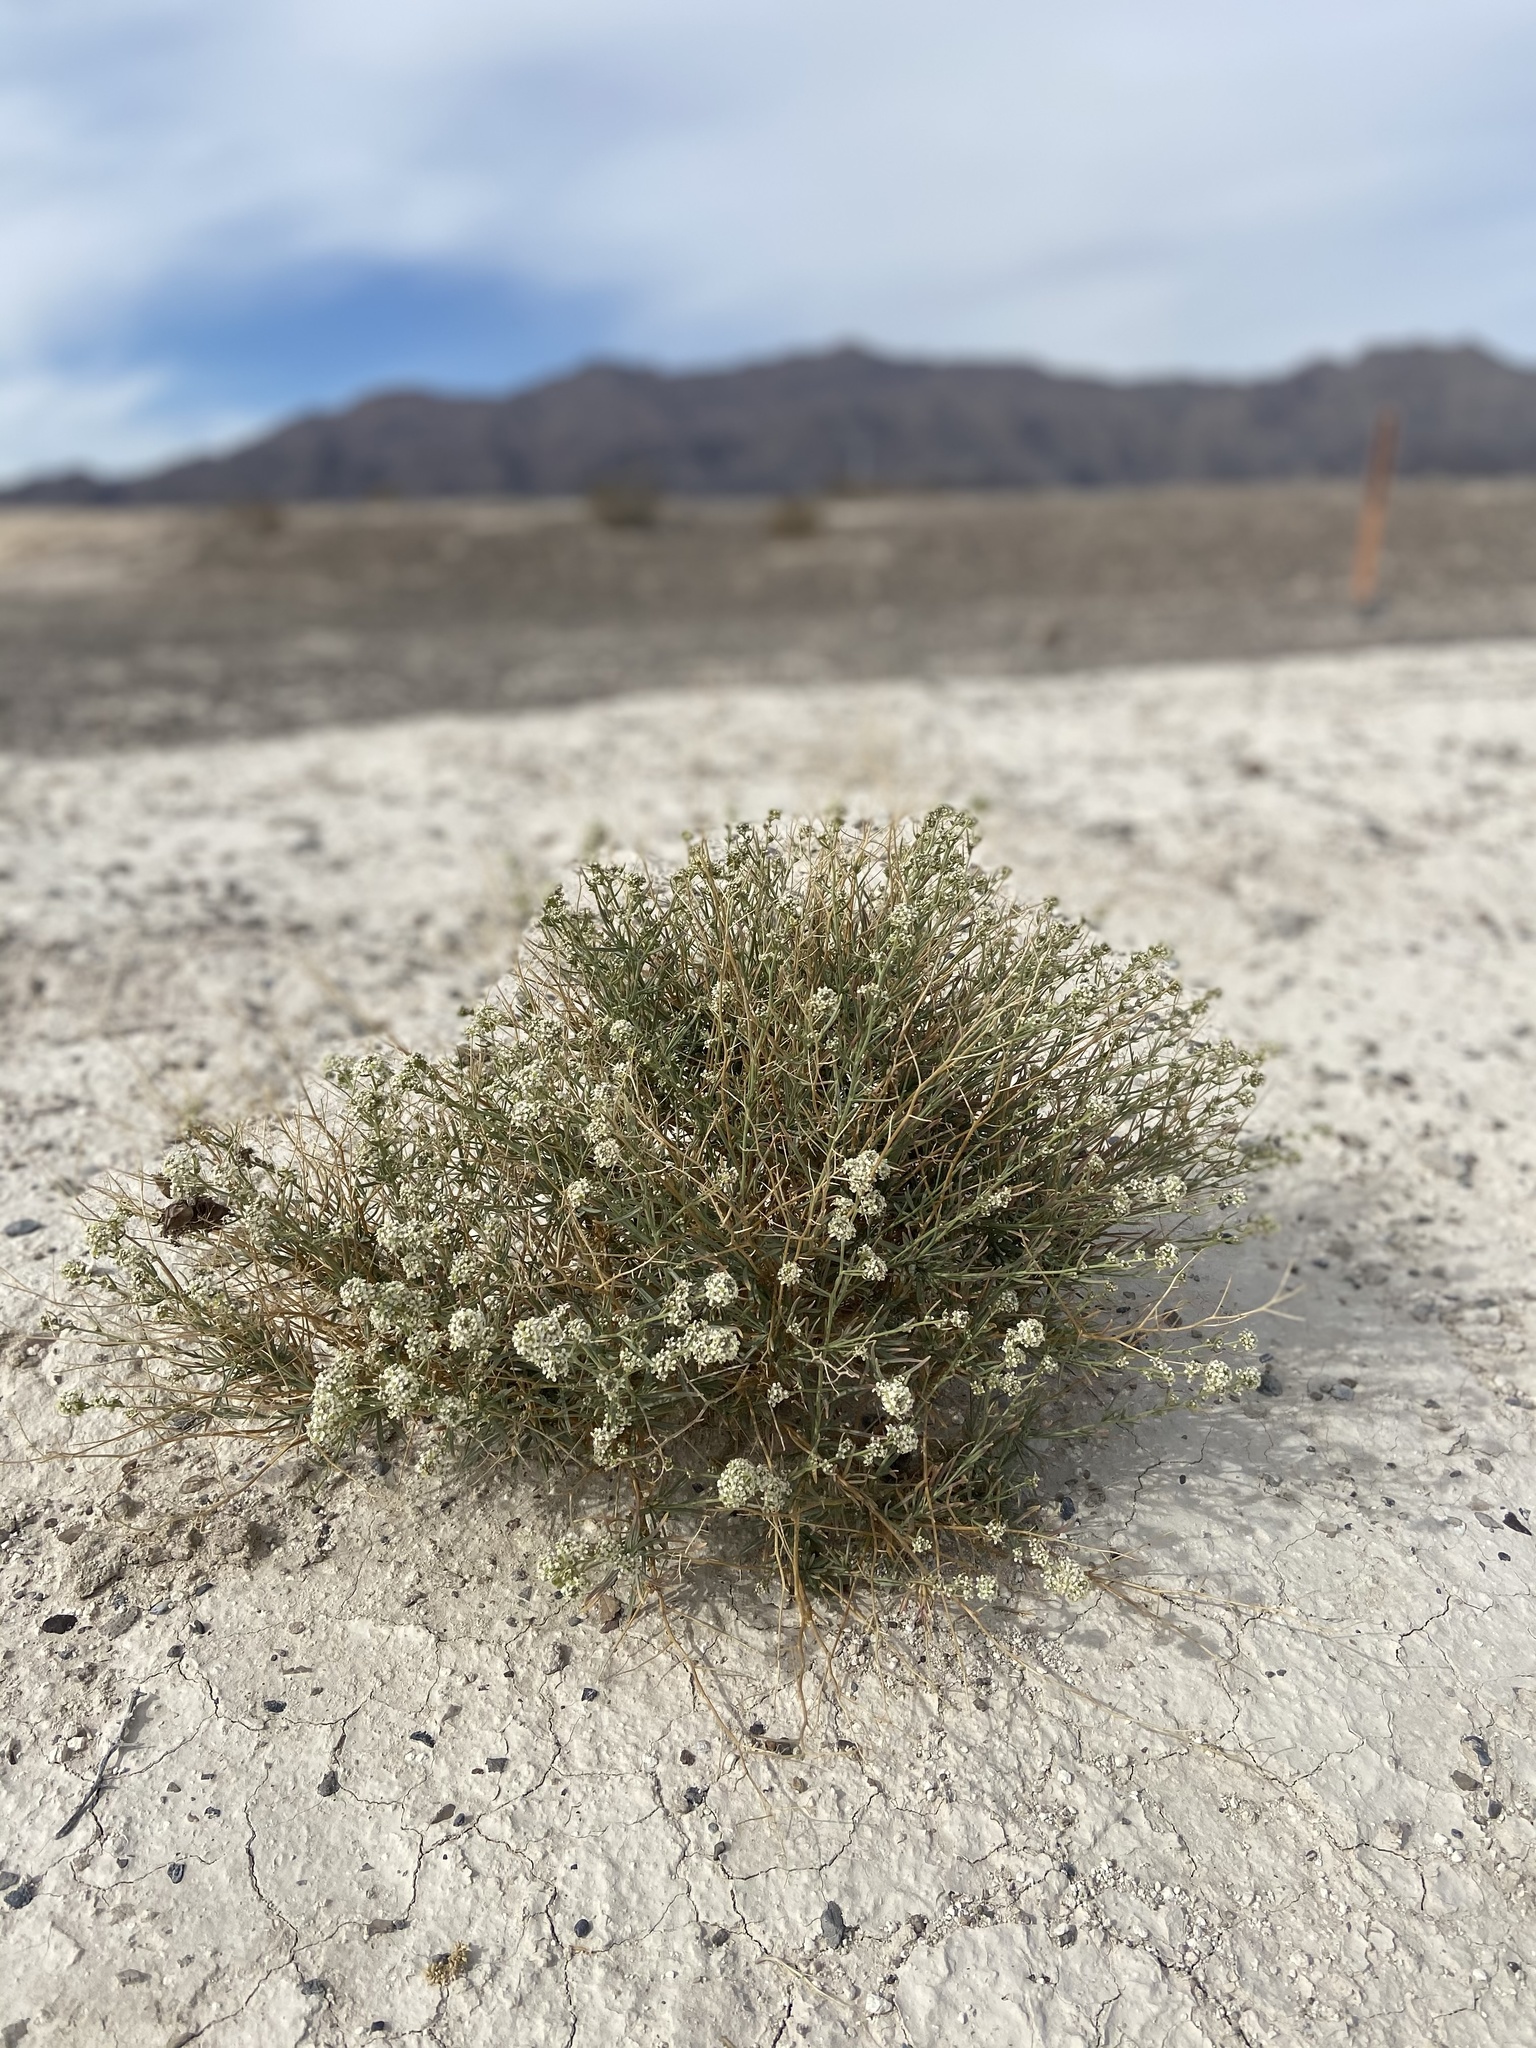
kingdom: Plantae
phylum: Tracheophyta
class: Magnoliopsida
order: Brassicales
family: Brassicaceae
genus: Lepidium
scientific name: Lepidium fremontii
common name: Fremont's pepperwort
